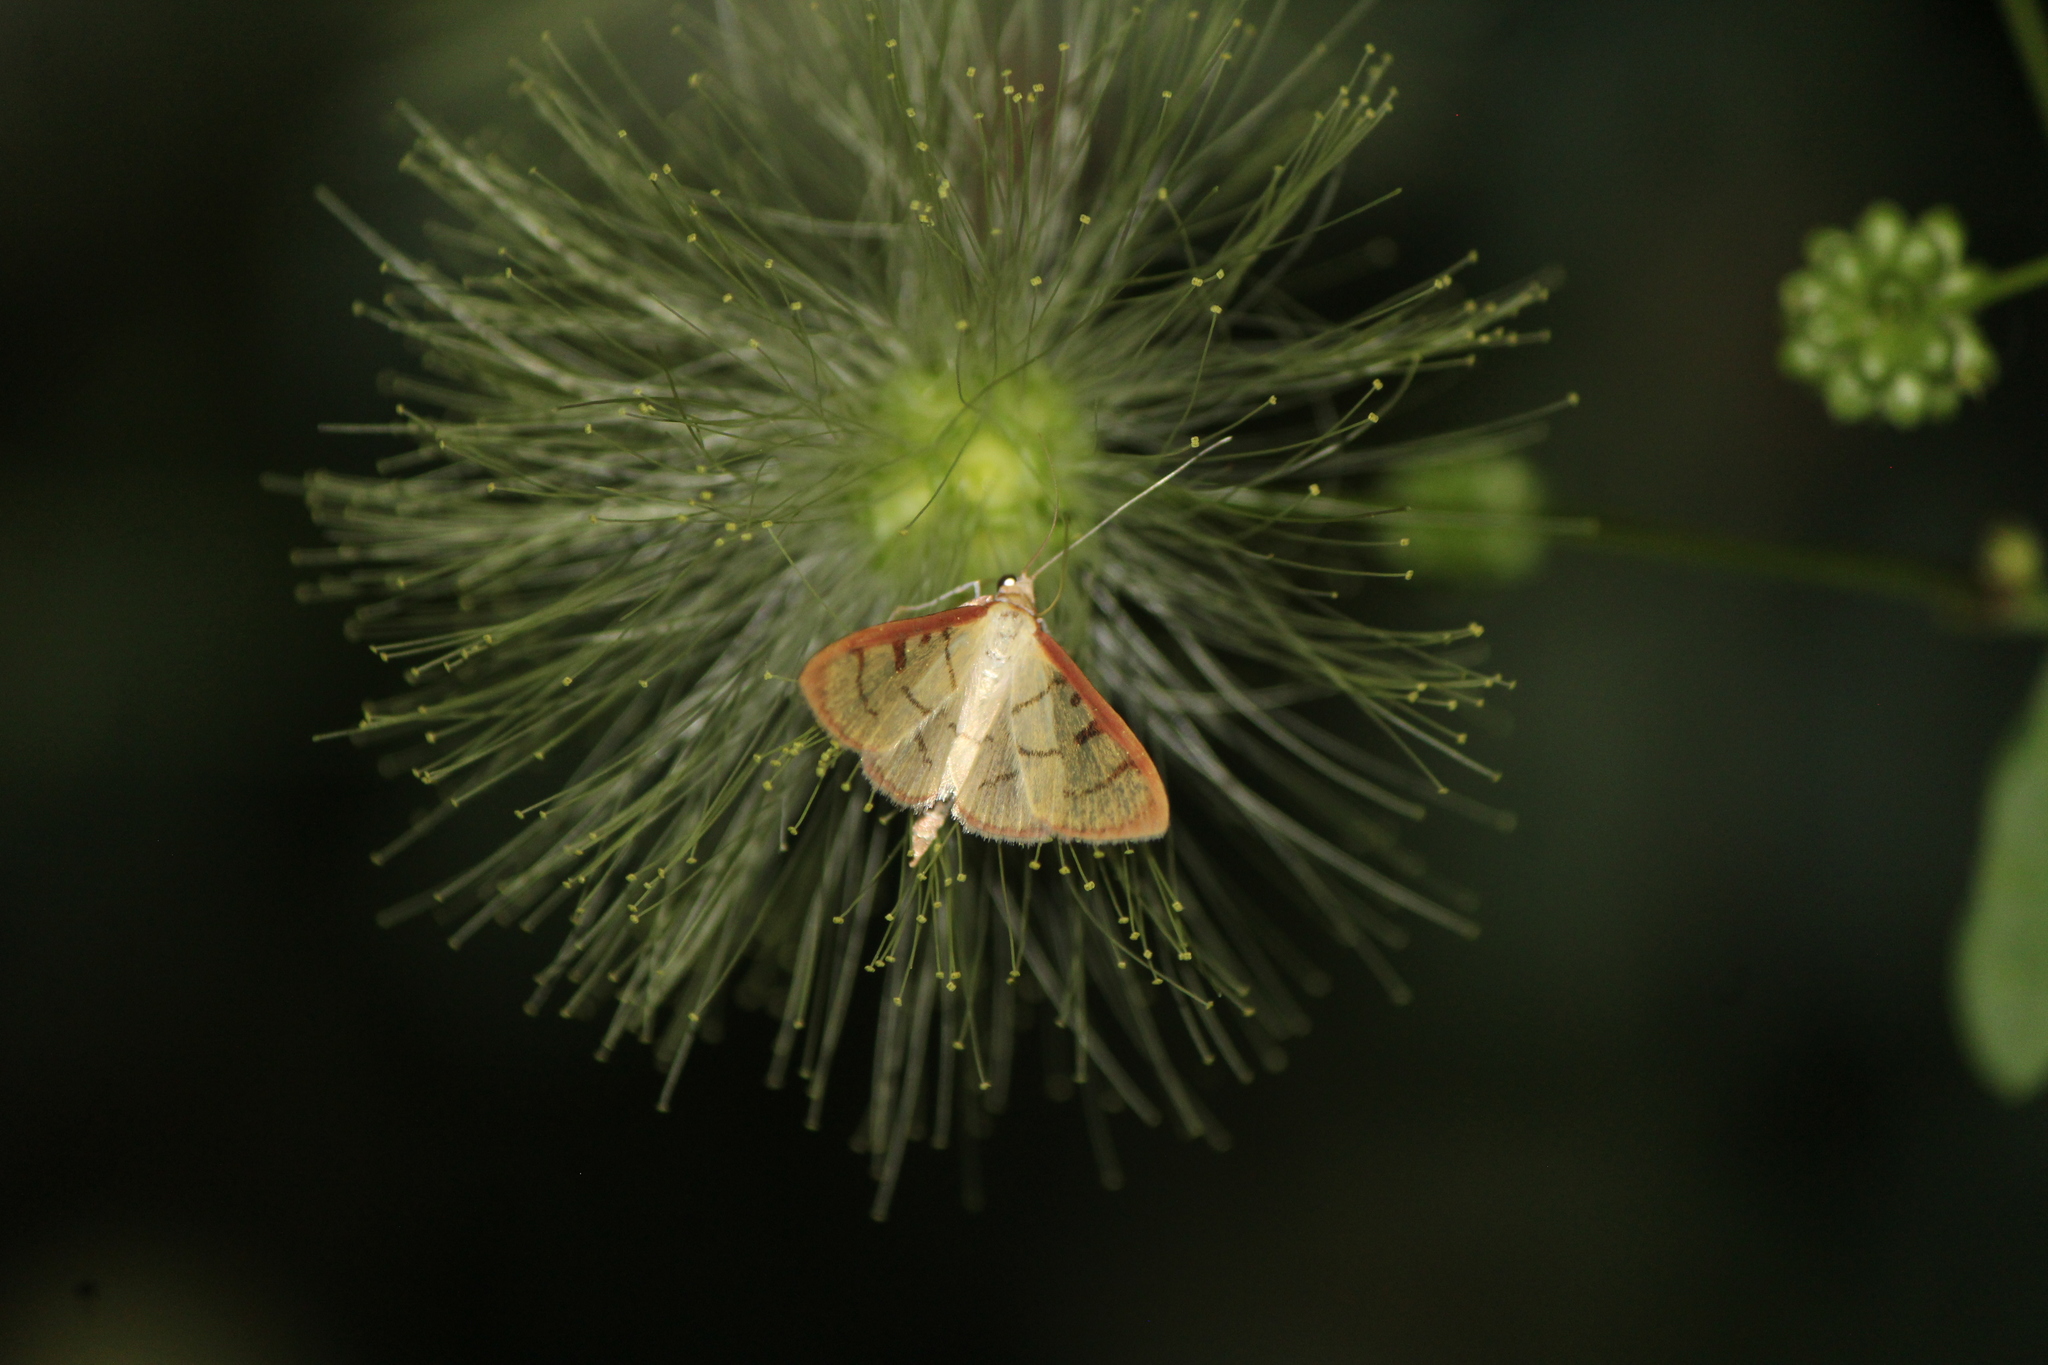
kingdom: Animalia
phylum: Arthropoda
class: Insecta
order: Lepidoptera
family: Crambidae
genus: Sarabotys
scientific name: Sarabotys
